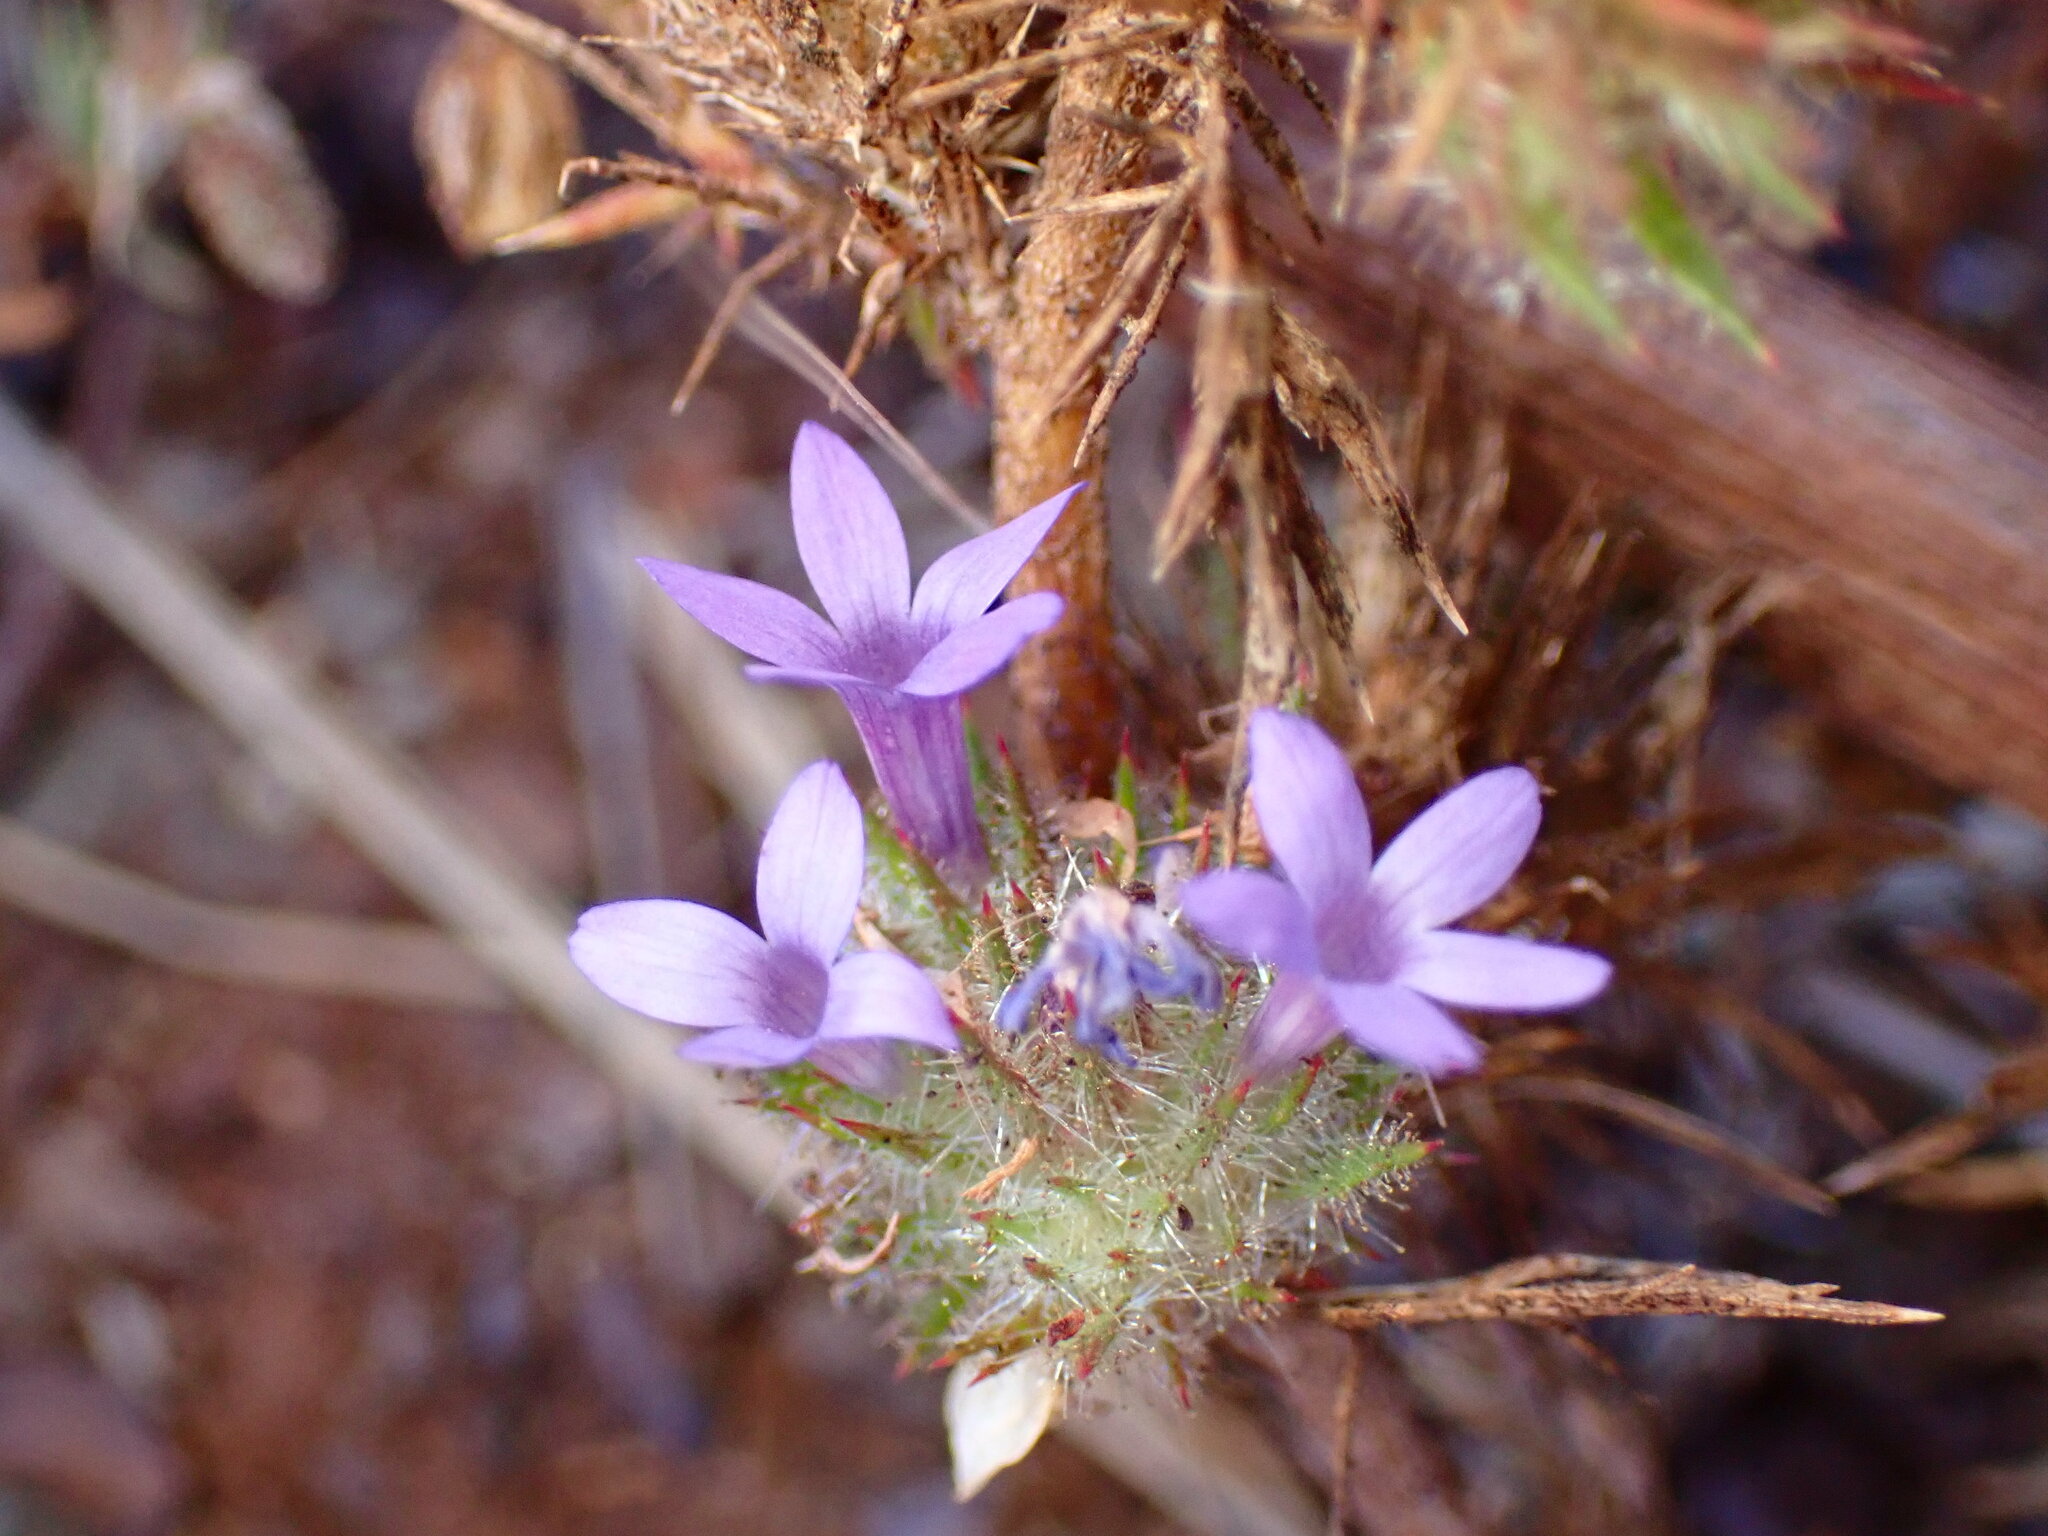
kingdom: Plantae
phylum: Tracheophyta
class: Magnoliopsida
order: Ericales
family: Polemoniaceae
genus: Navarretia
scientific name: Navarretia squarrosa
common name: Skunkweed
